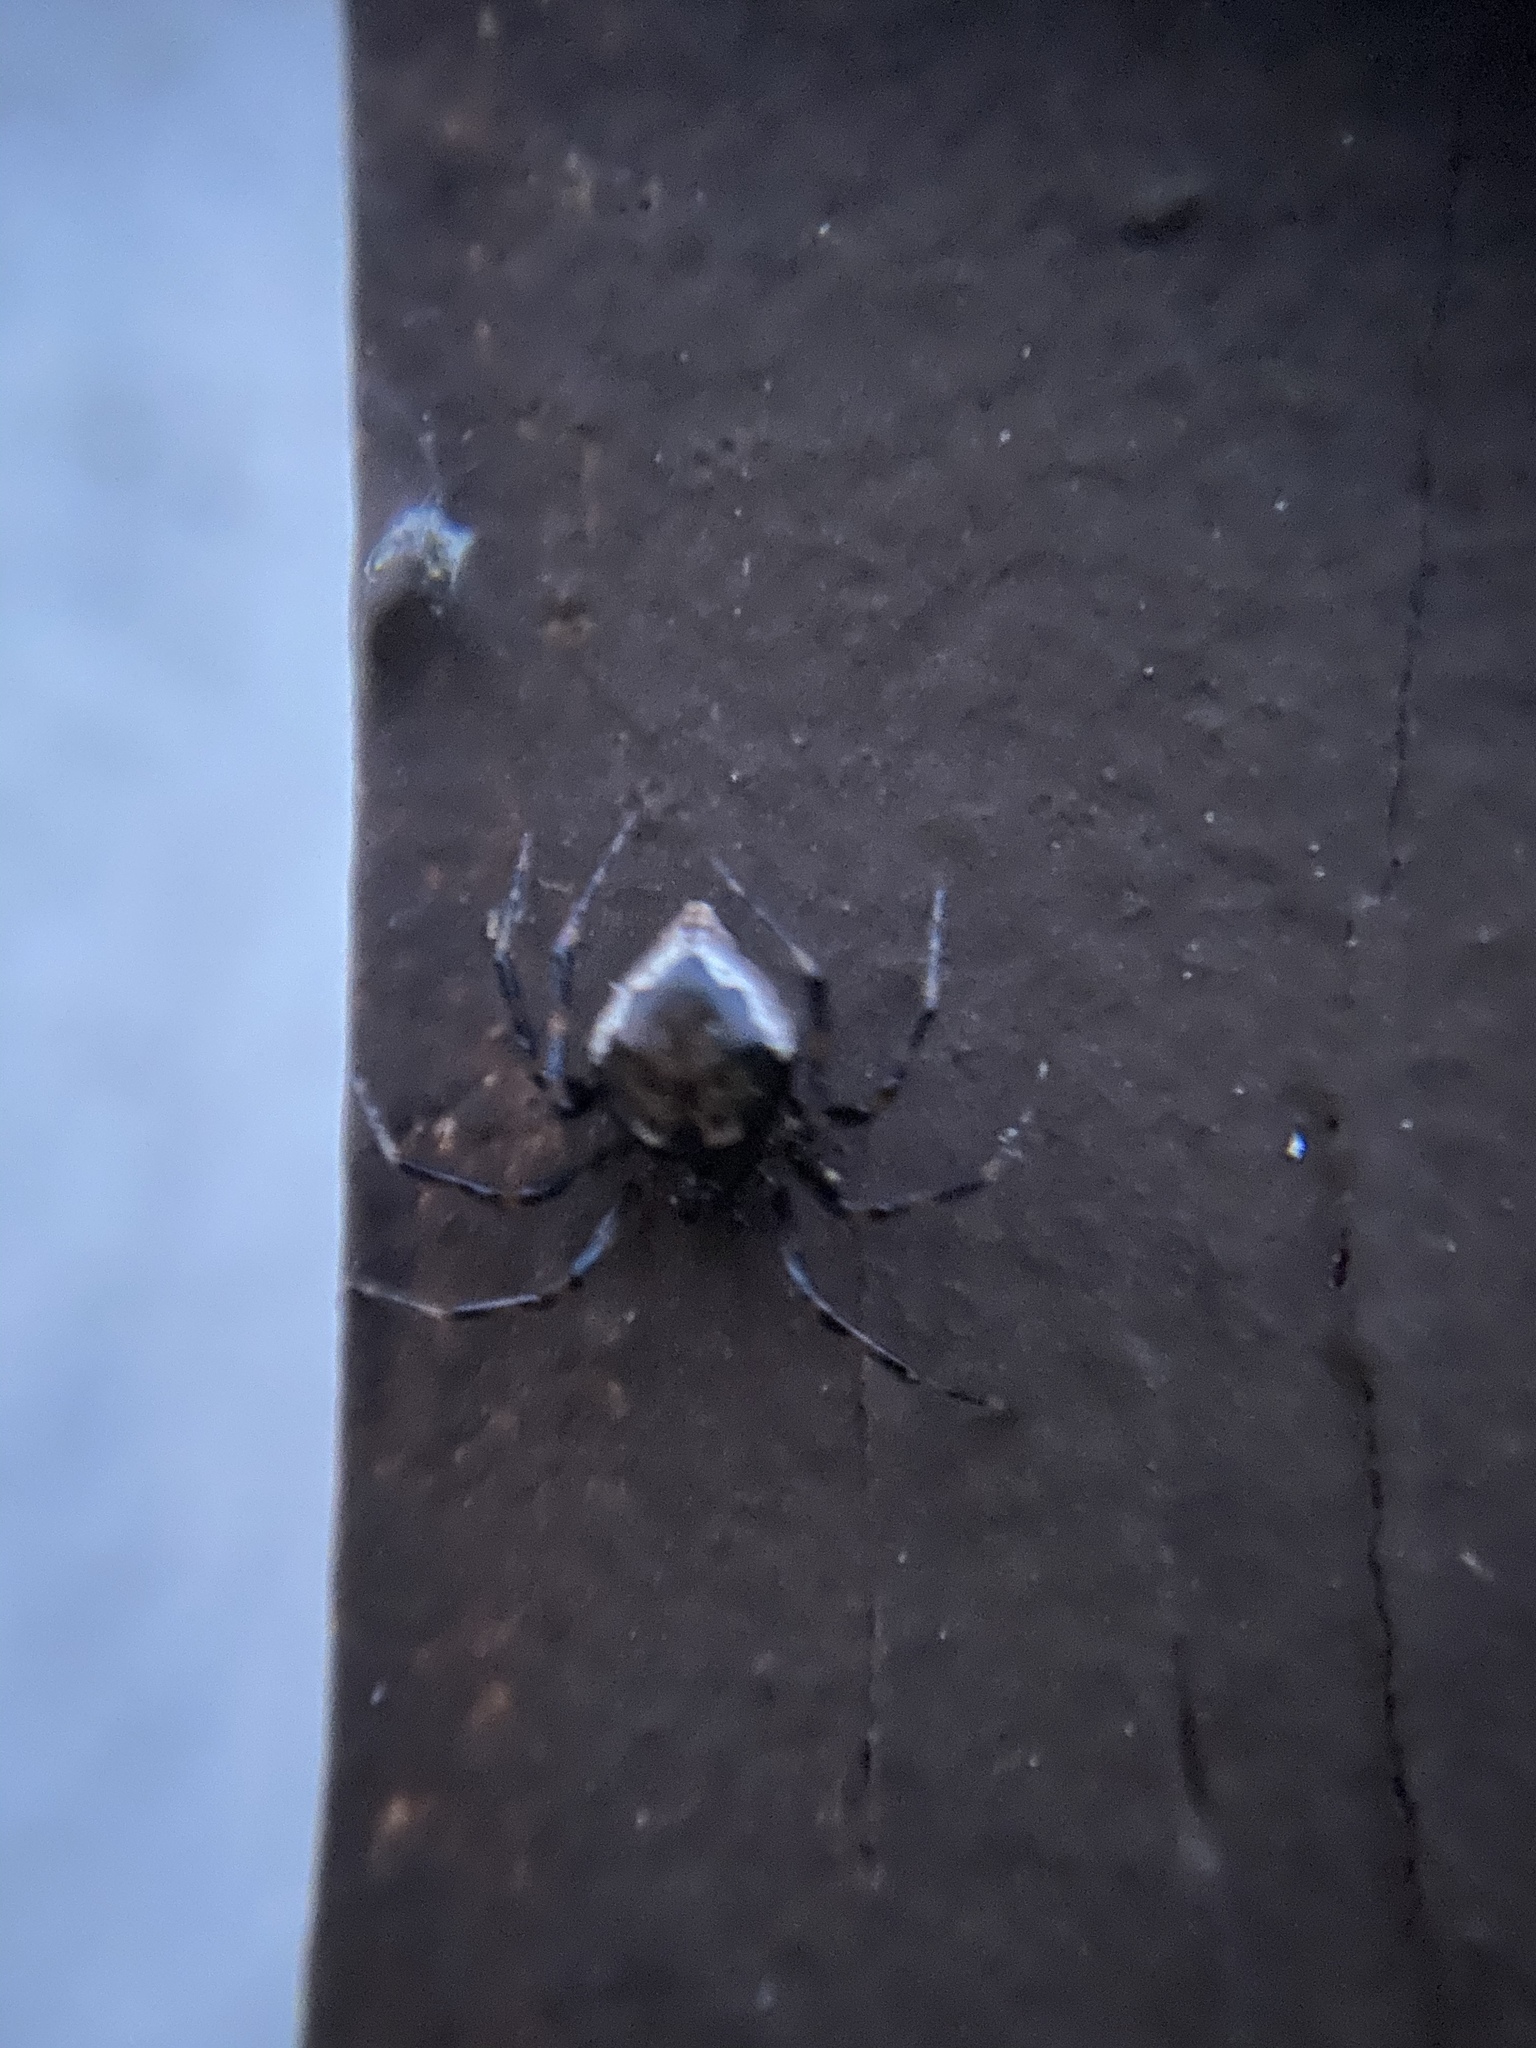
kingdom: Animalia
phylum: Arthropoda
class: Arachnida
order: Araneae
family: Theridiidae
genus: Euryopis
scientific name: Euryopis funebris
